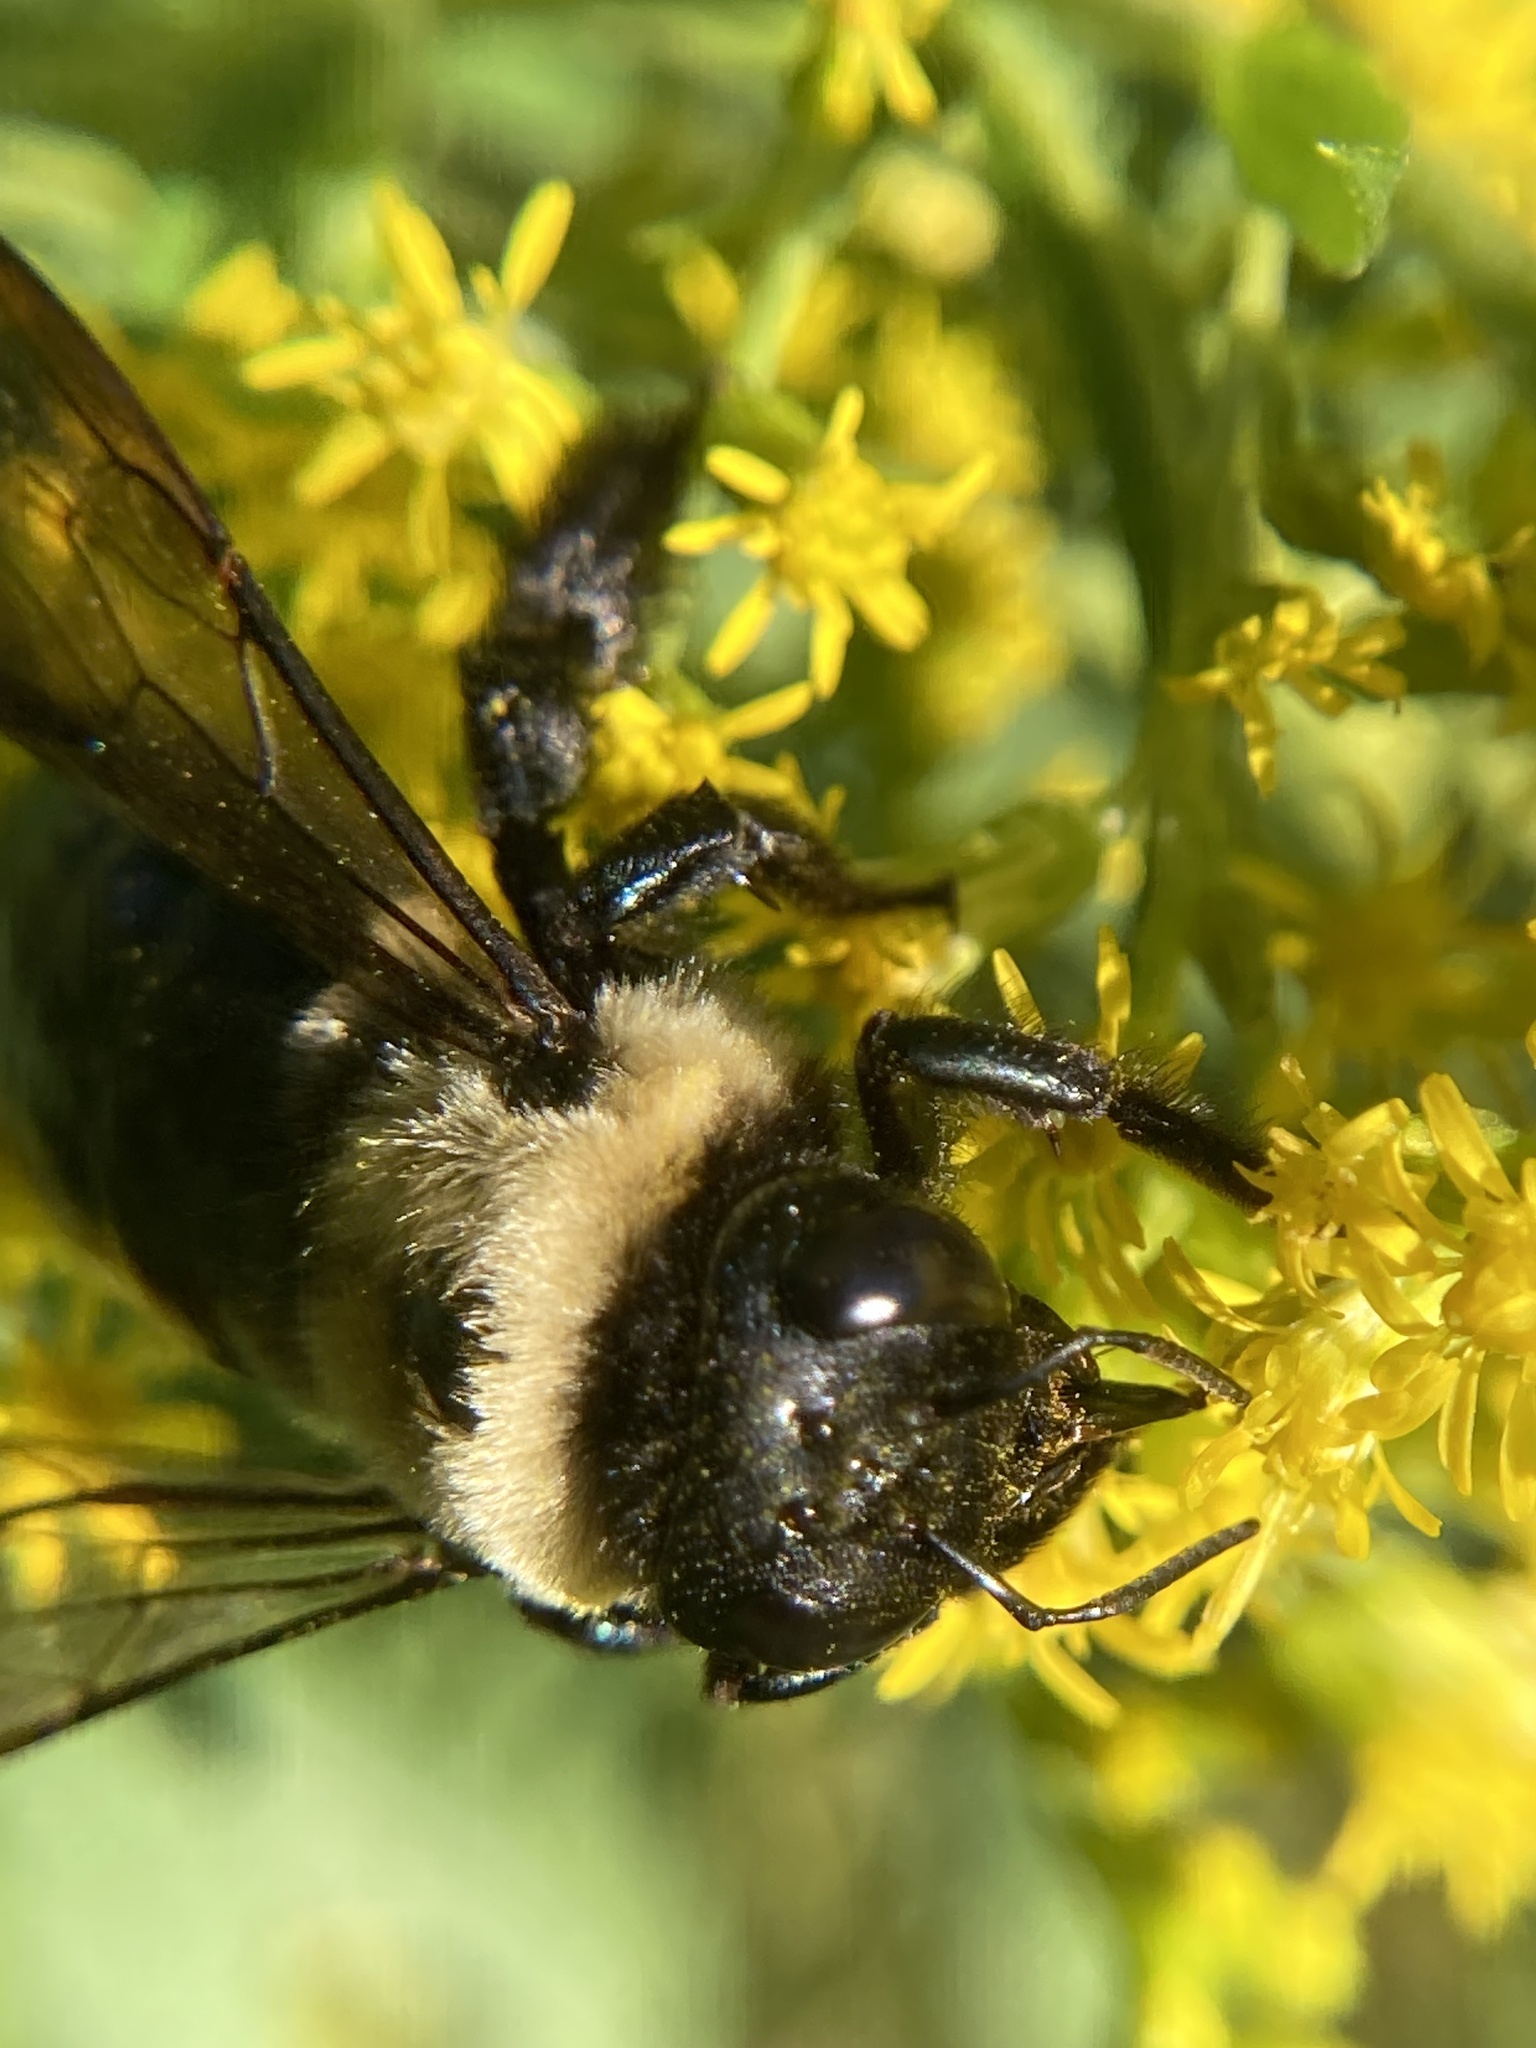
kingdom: Animalia
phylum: Arthropoda
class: Insecta
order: Hymenoptera
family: Apidae
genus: Xylocopa
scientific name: Xylocopa virginica
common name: Carpenter bee
